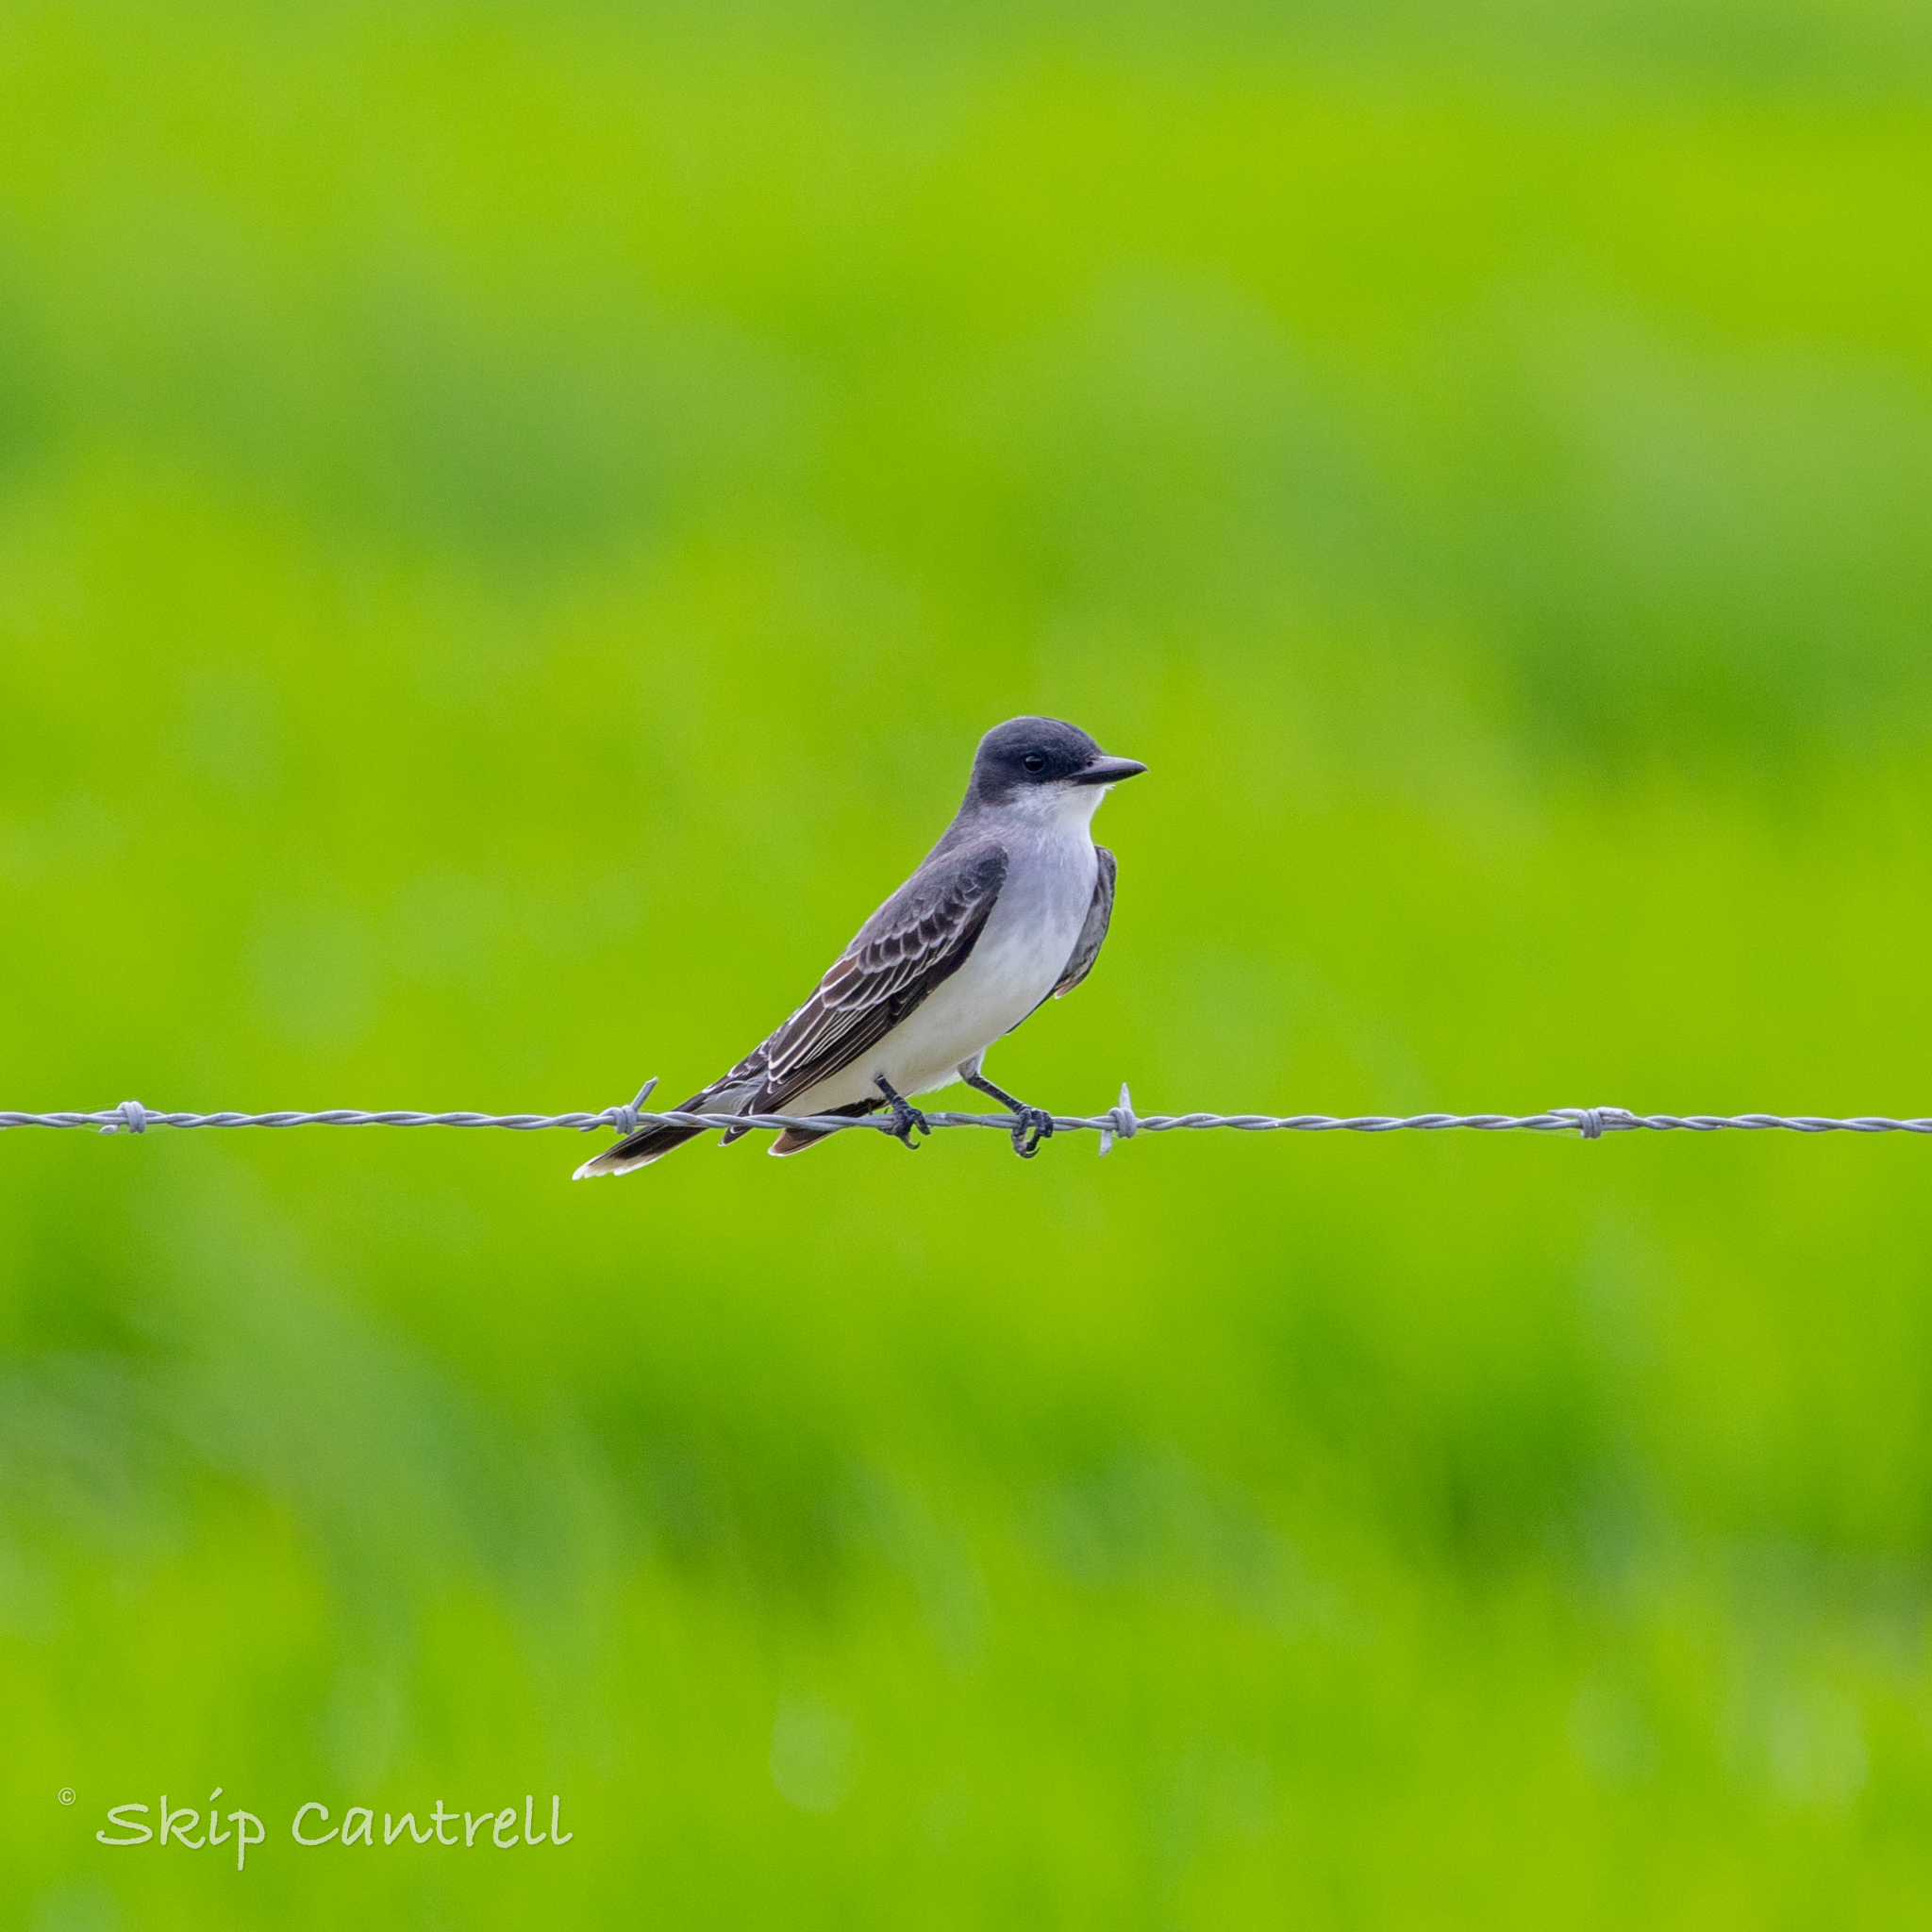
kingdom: Animalia
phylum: Chordata
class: Aves
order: Passeriformes
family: Tyrannidae
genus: Tyrannus
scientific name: Tyrannus tyrannus
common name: Eastern kingbird
